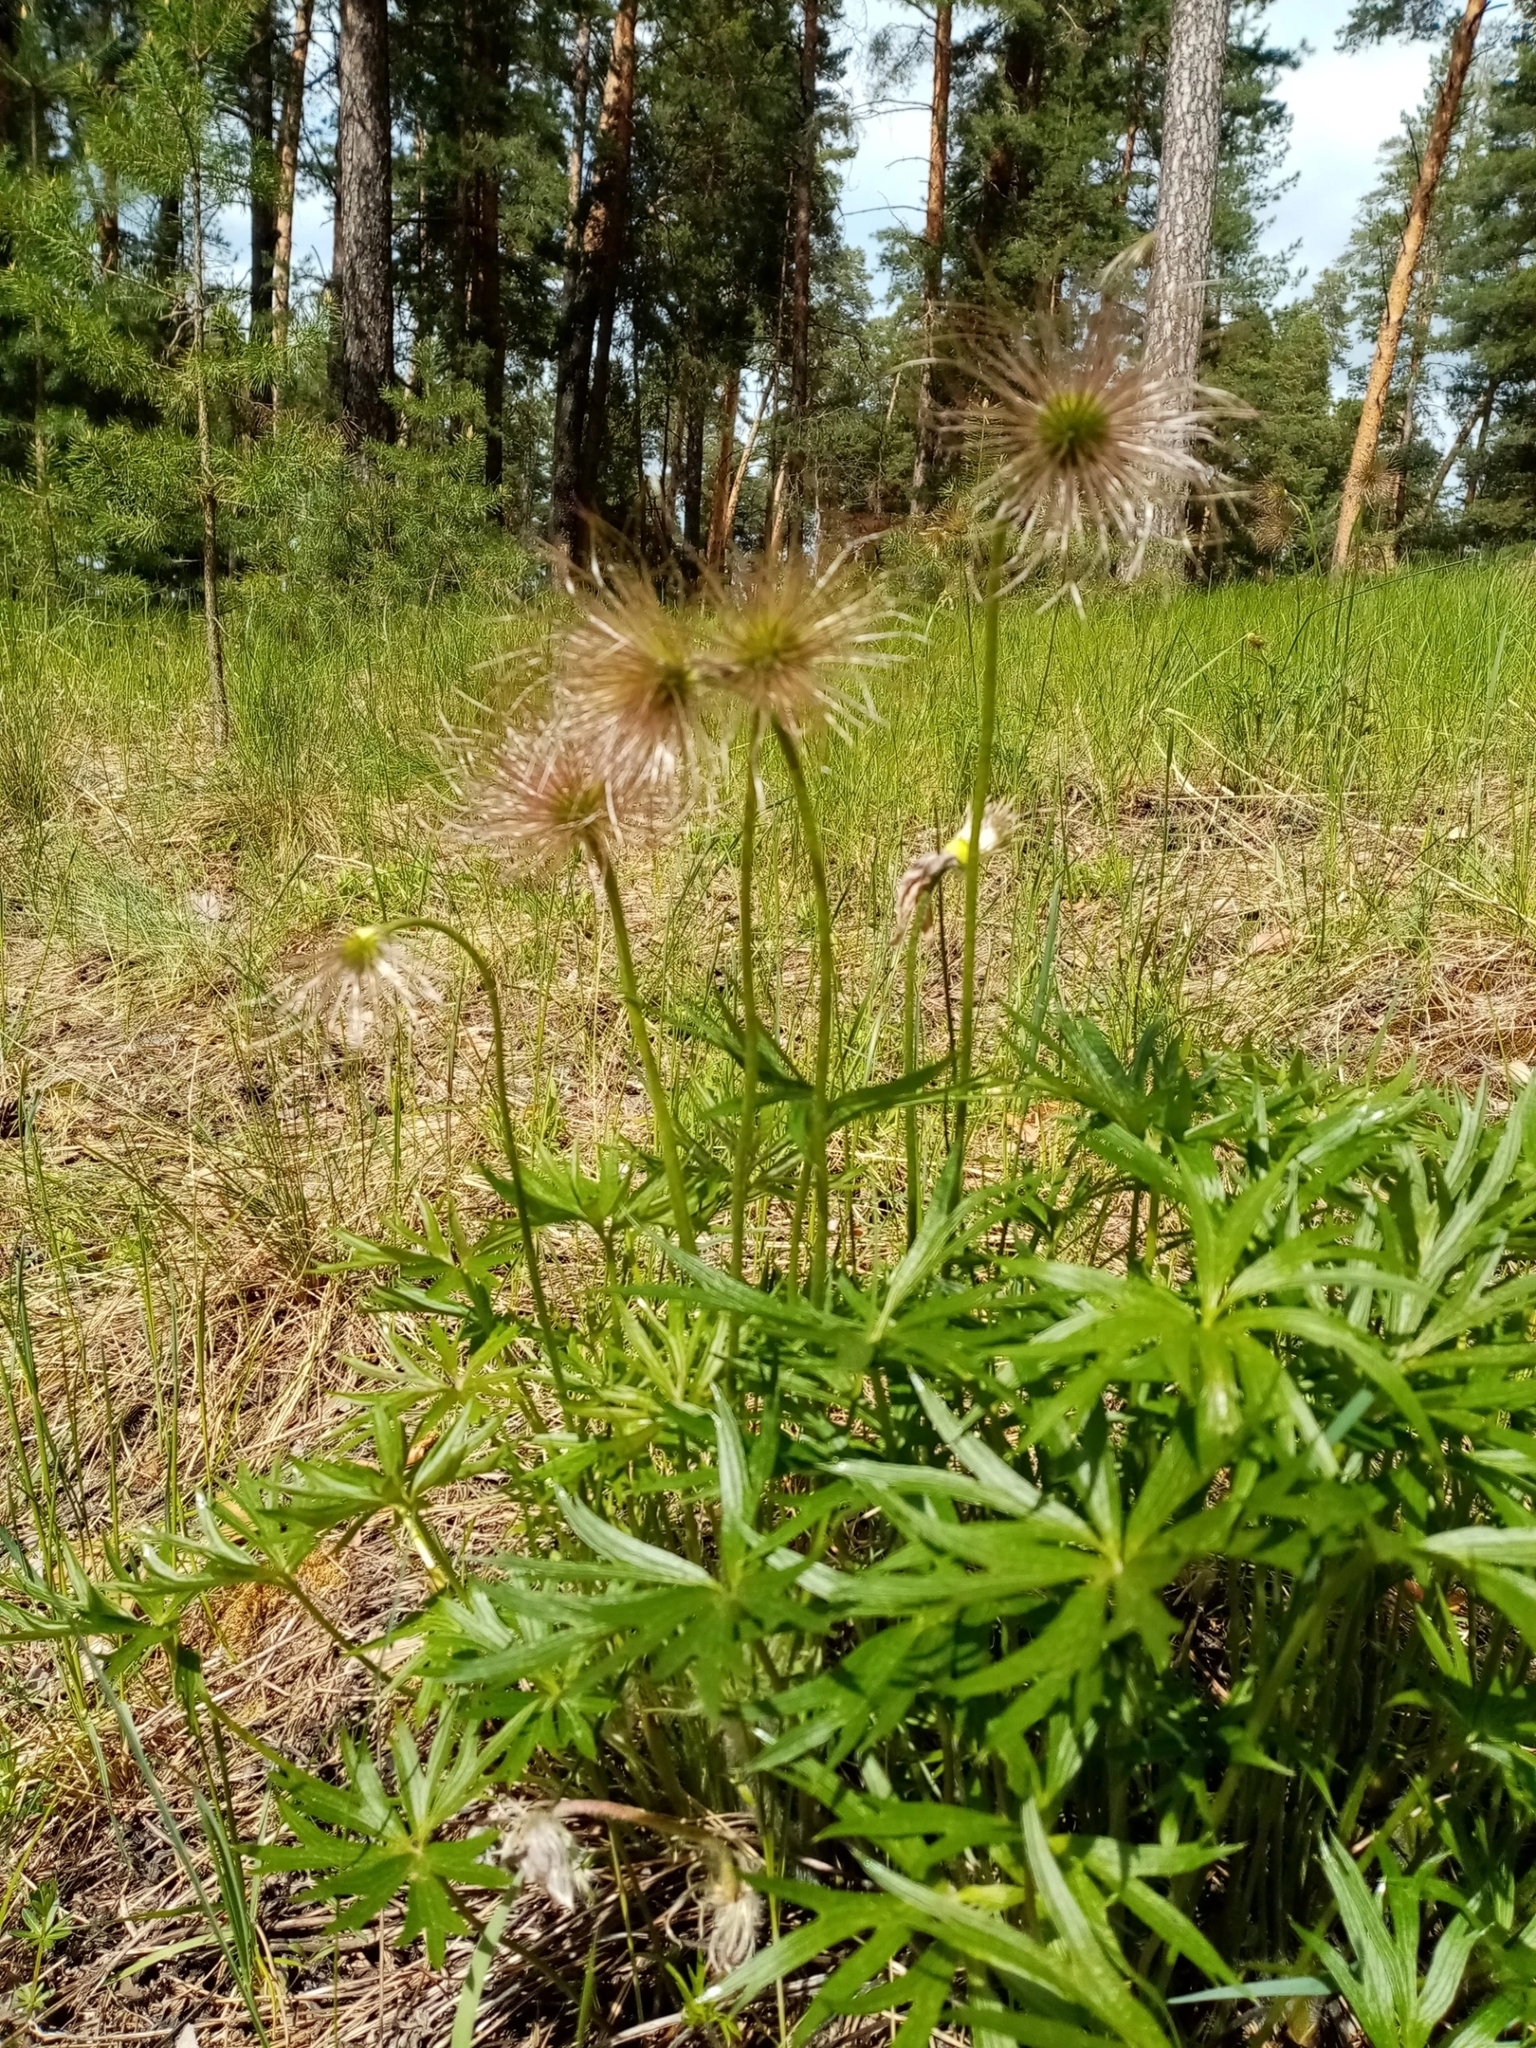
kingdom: Plantae
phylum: Tracheophyta
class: Magnoliopsida
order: Ranunculales
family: Ranunculaceae
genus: Pulsatilla
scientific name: Pulsatilla patens
